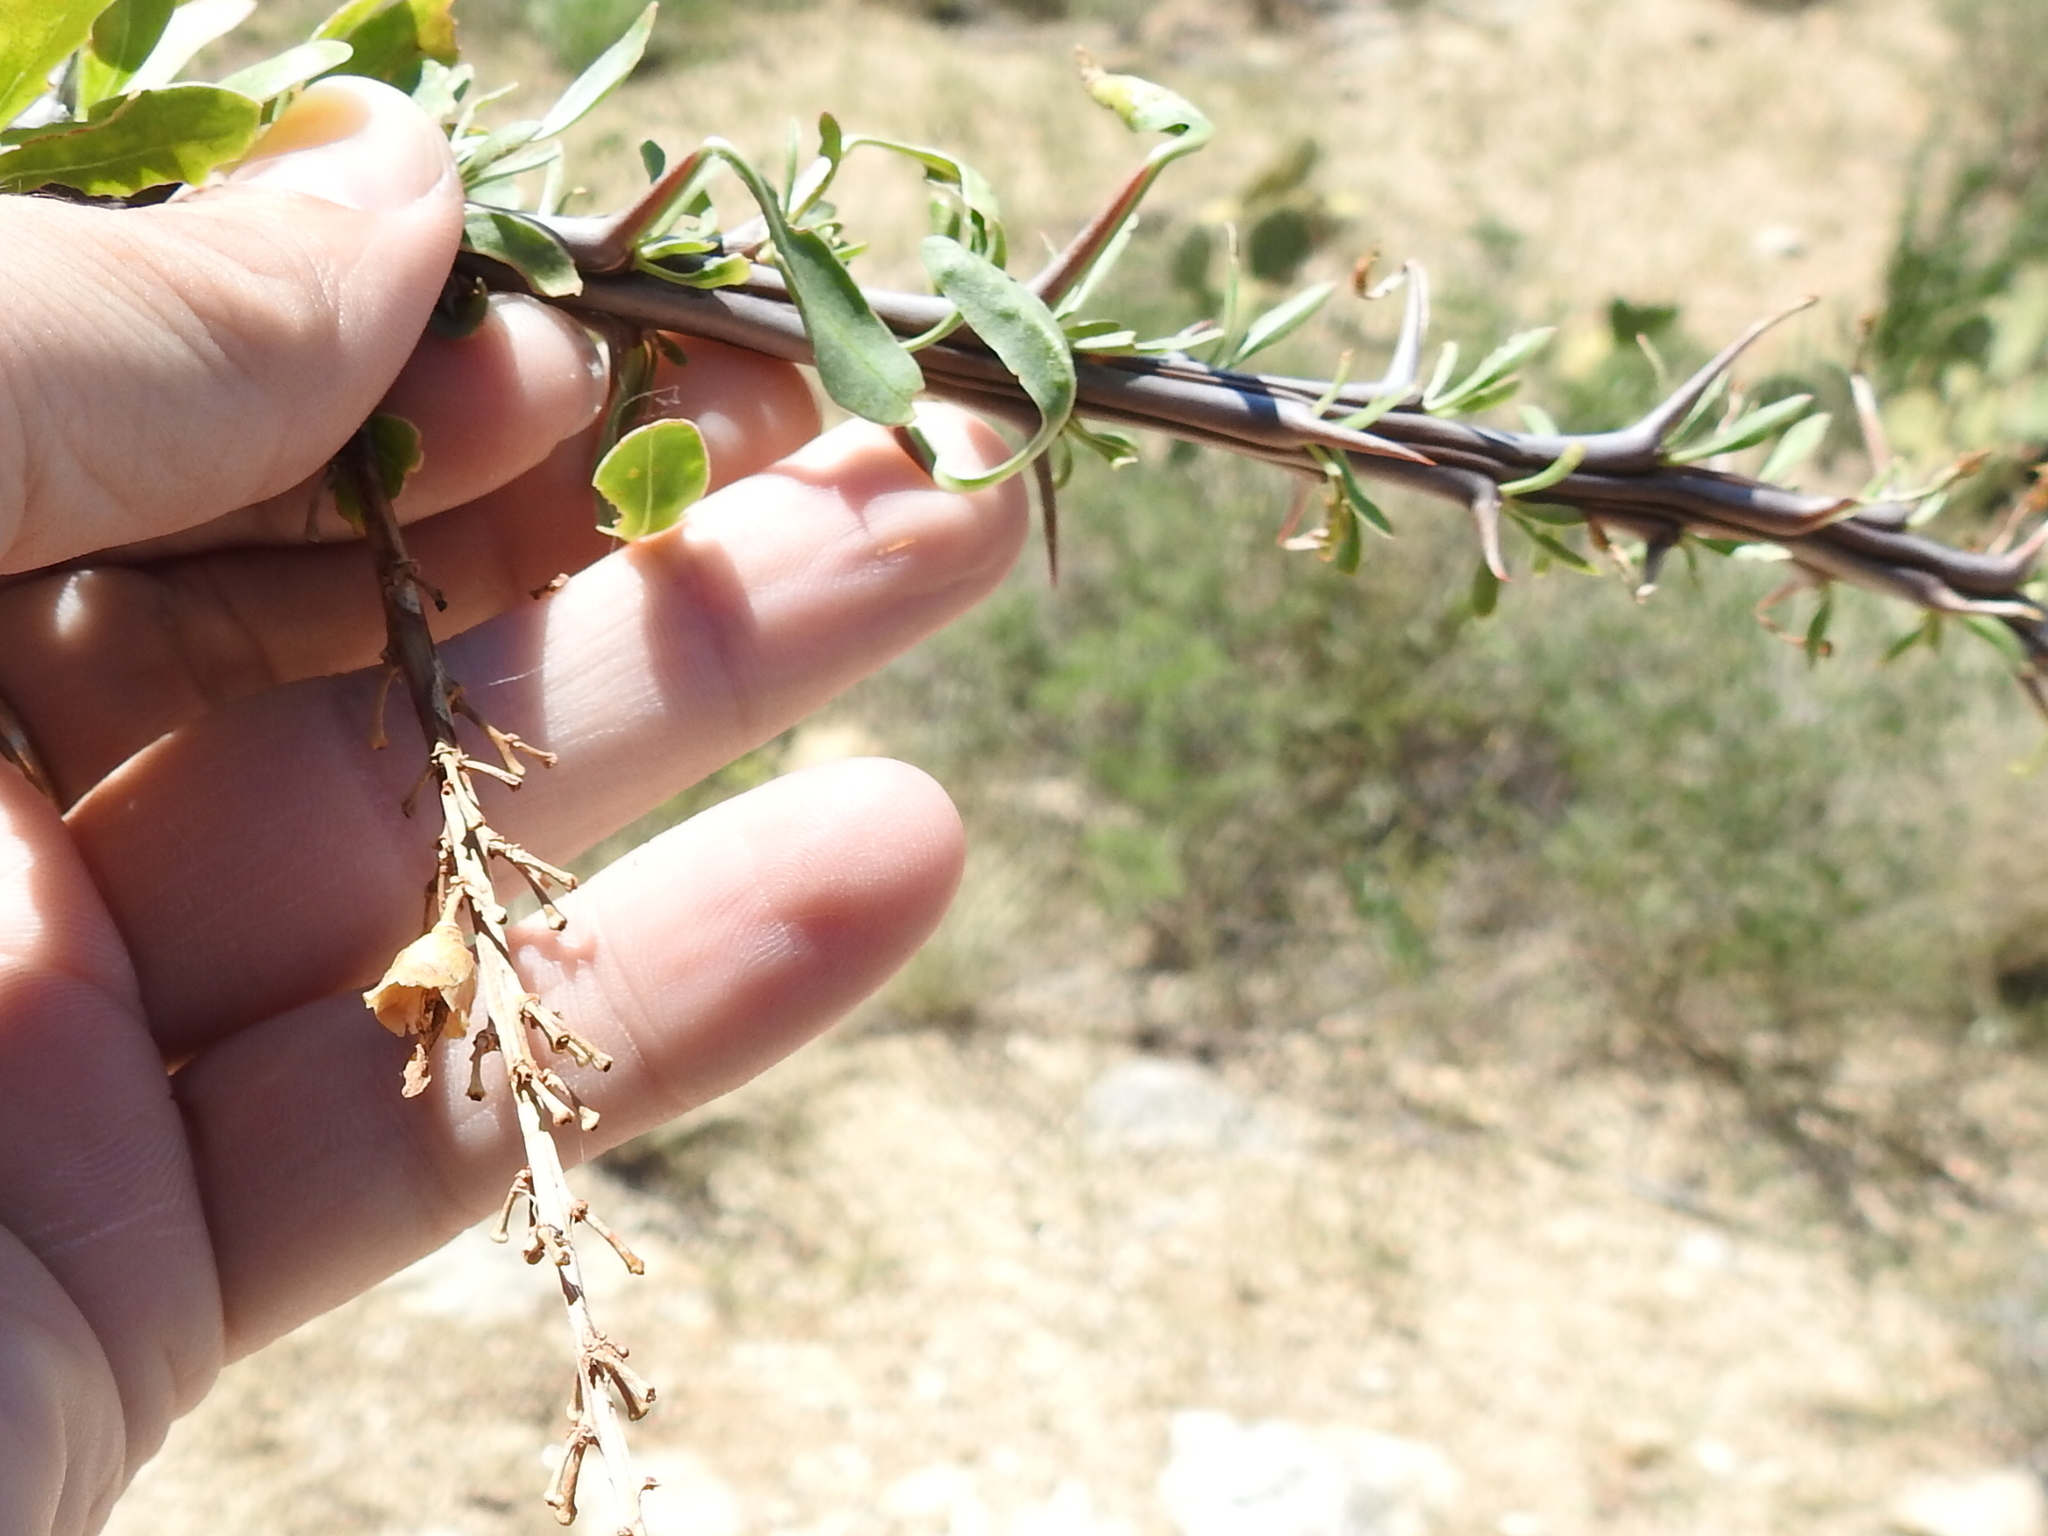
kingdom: Plantae
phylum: Tracheophyta
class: Magnoliopsida
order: Ericales
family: Fouquieriaceae
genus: Fouquieria
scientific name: Fouquieria splendens
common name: Vine-cactus
